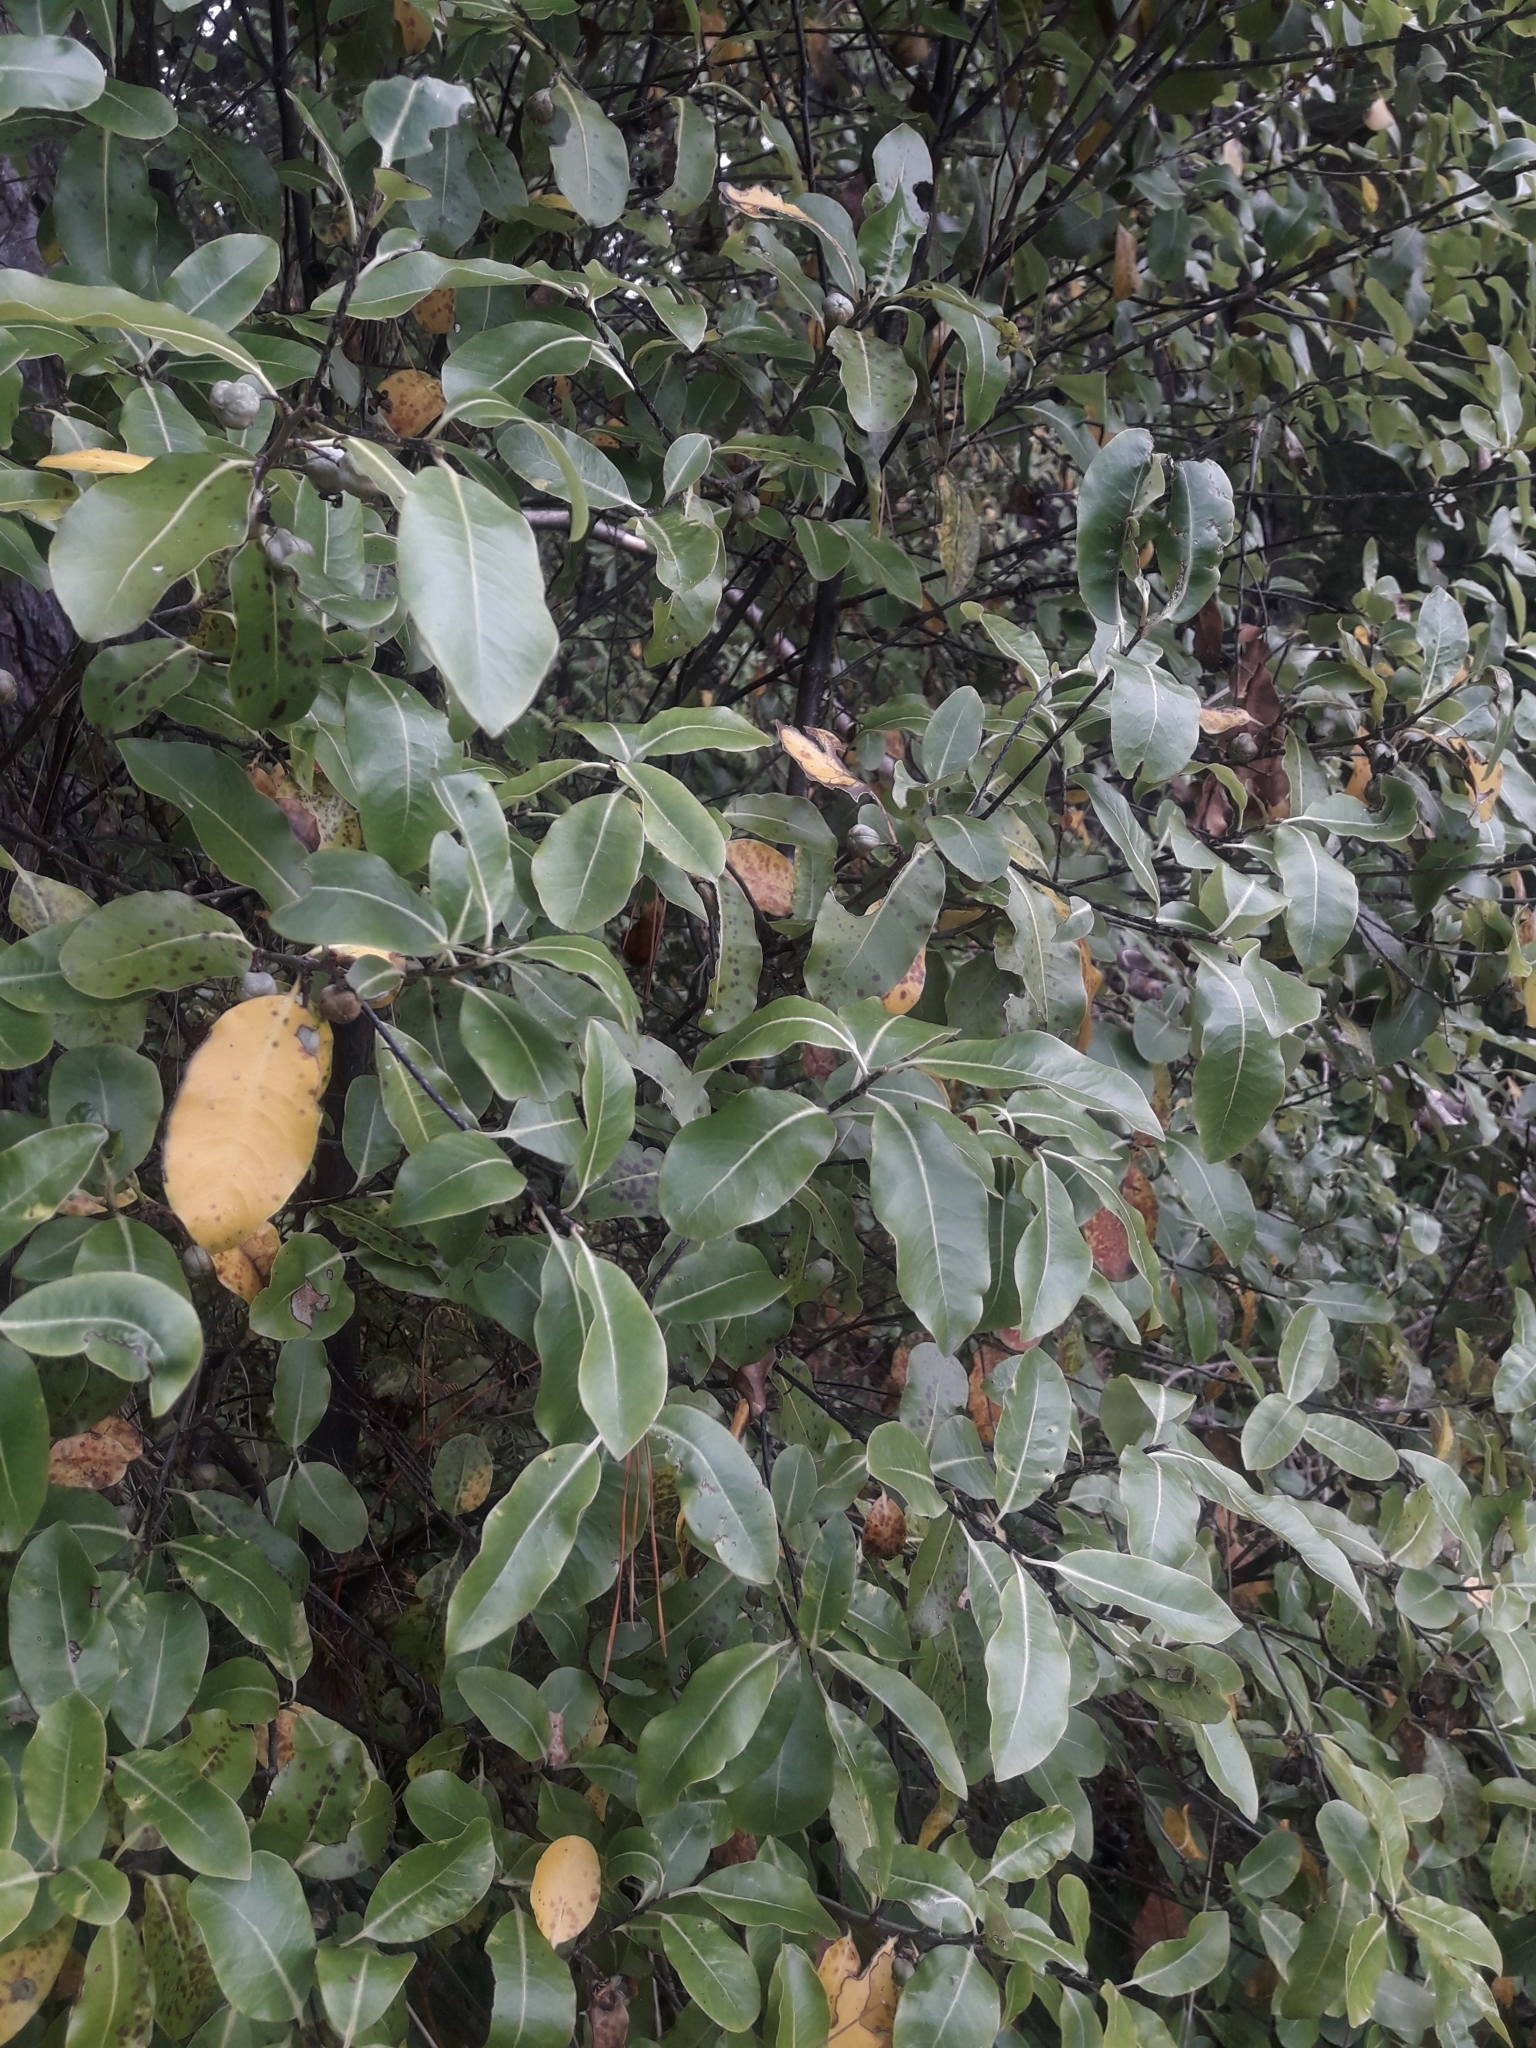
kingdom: Plantae
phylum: Tracheophyta
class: Magnoliopsida
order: Apiales
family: Pittosporaceae
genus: Pittosporum
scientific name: Pittosporum tenuifolium
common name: Kohuhu
